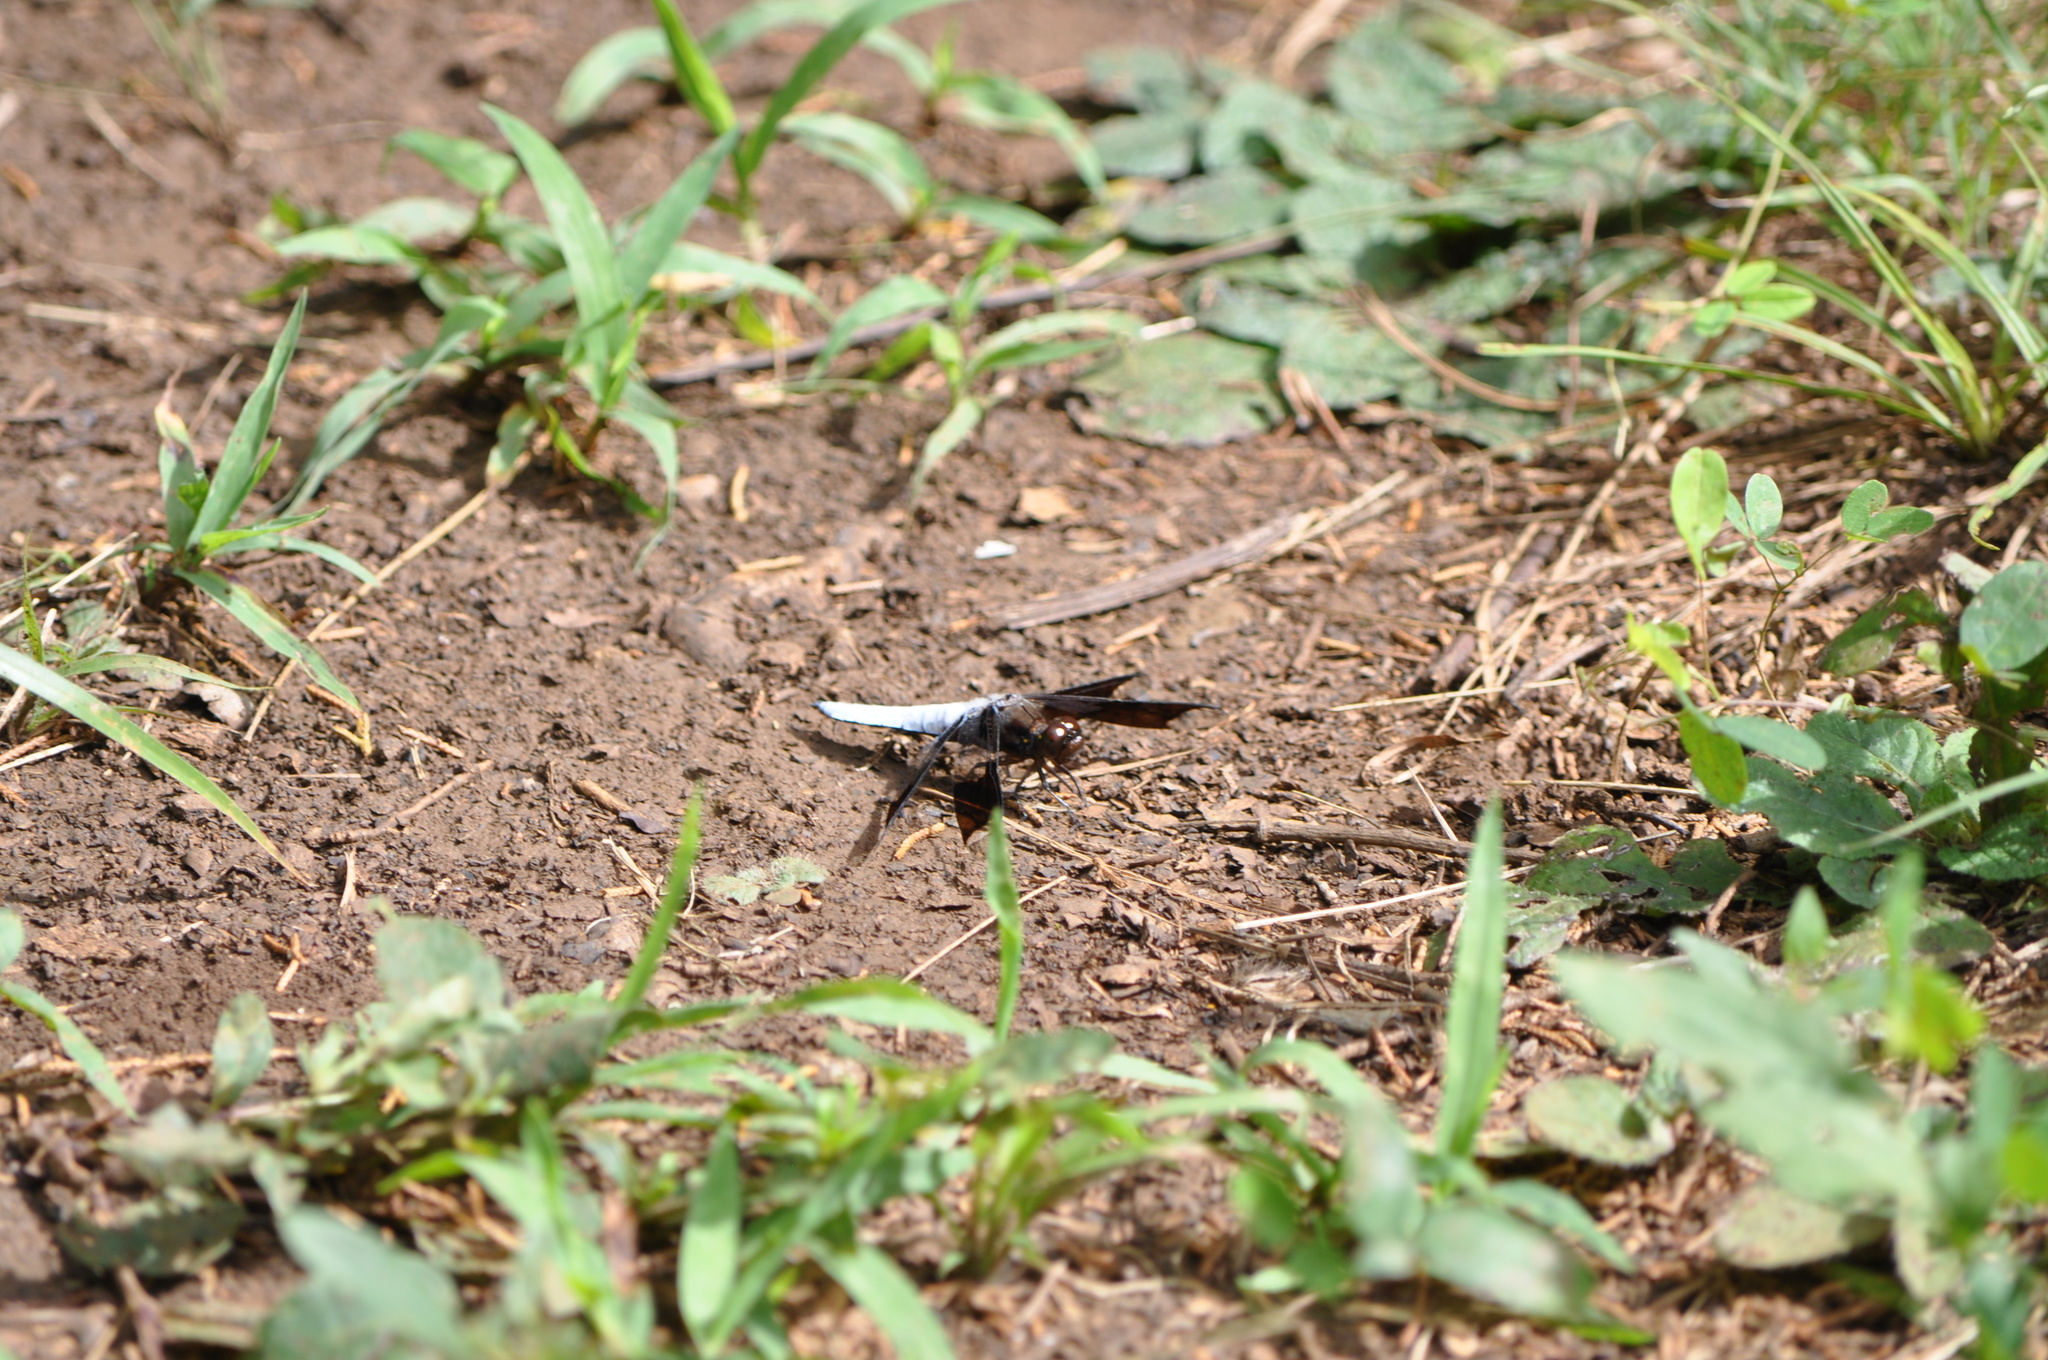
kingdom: Animalia
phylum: Arthropoda
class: Insecta
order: Odonata
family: Libellulidae
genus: Plathemis
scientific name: Plathemis lydia
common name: Common whitetail
